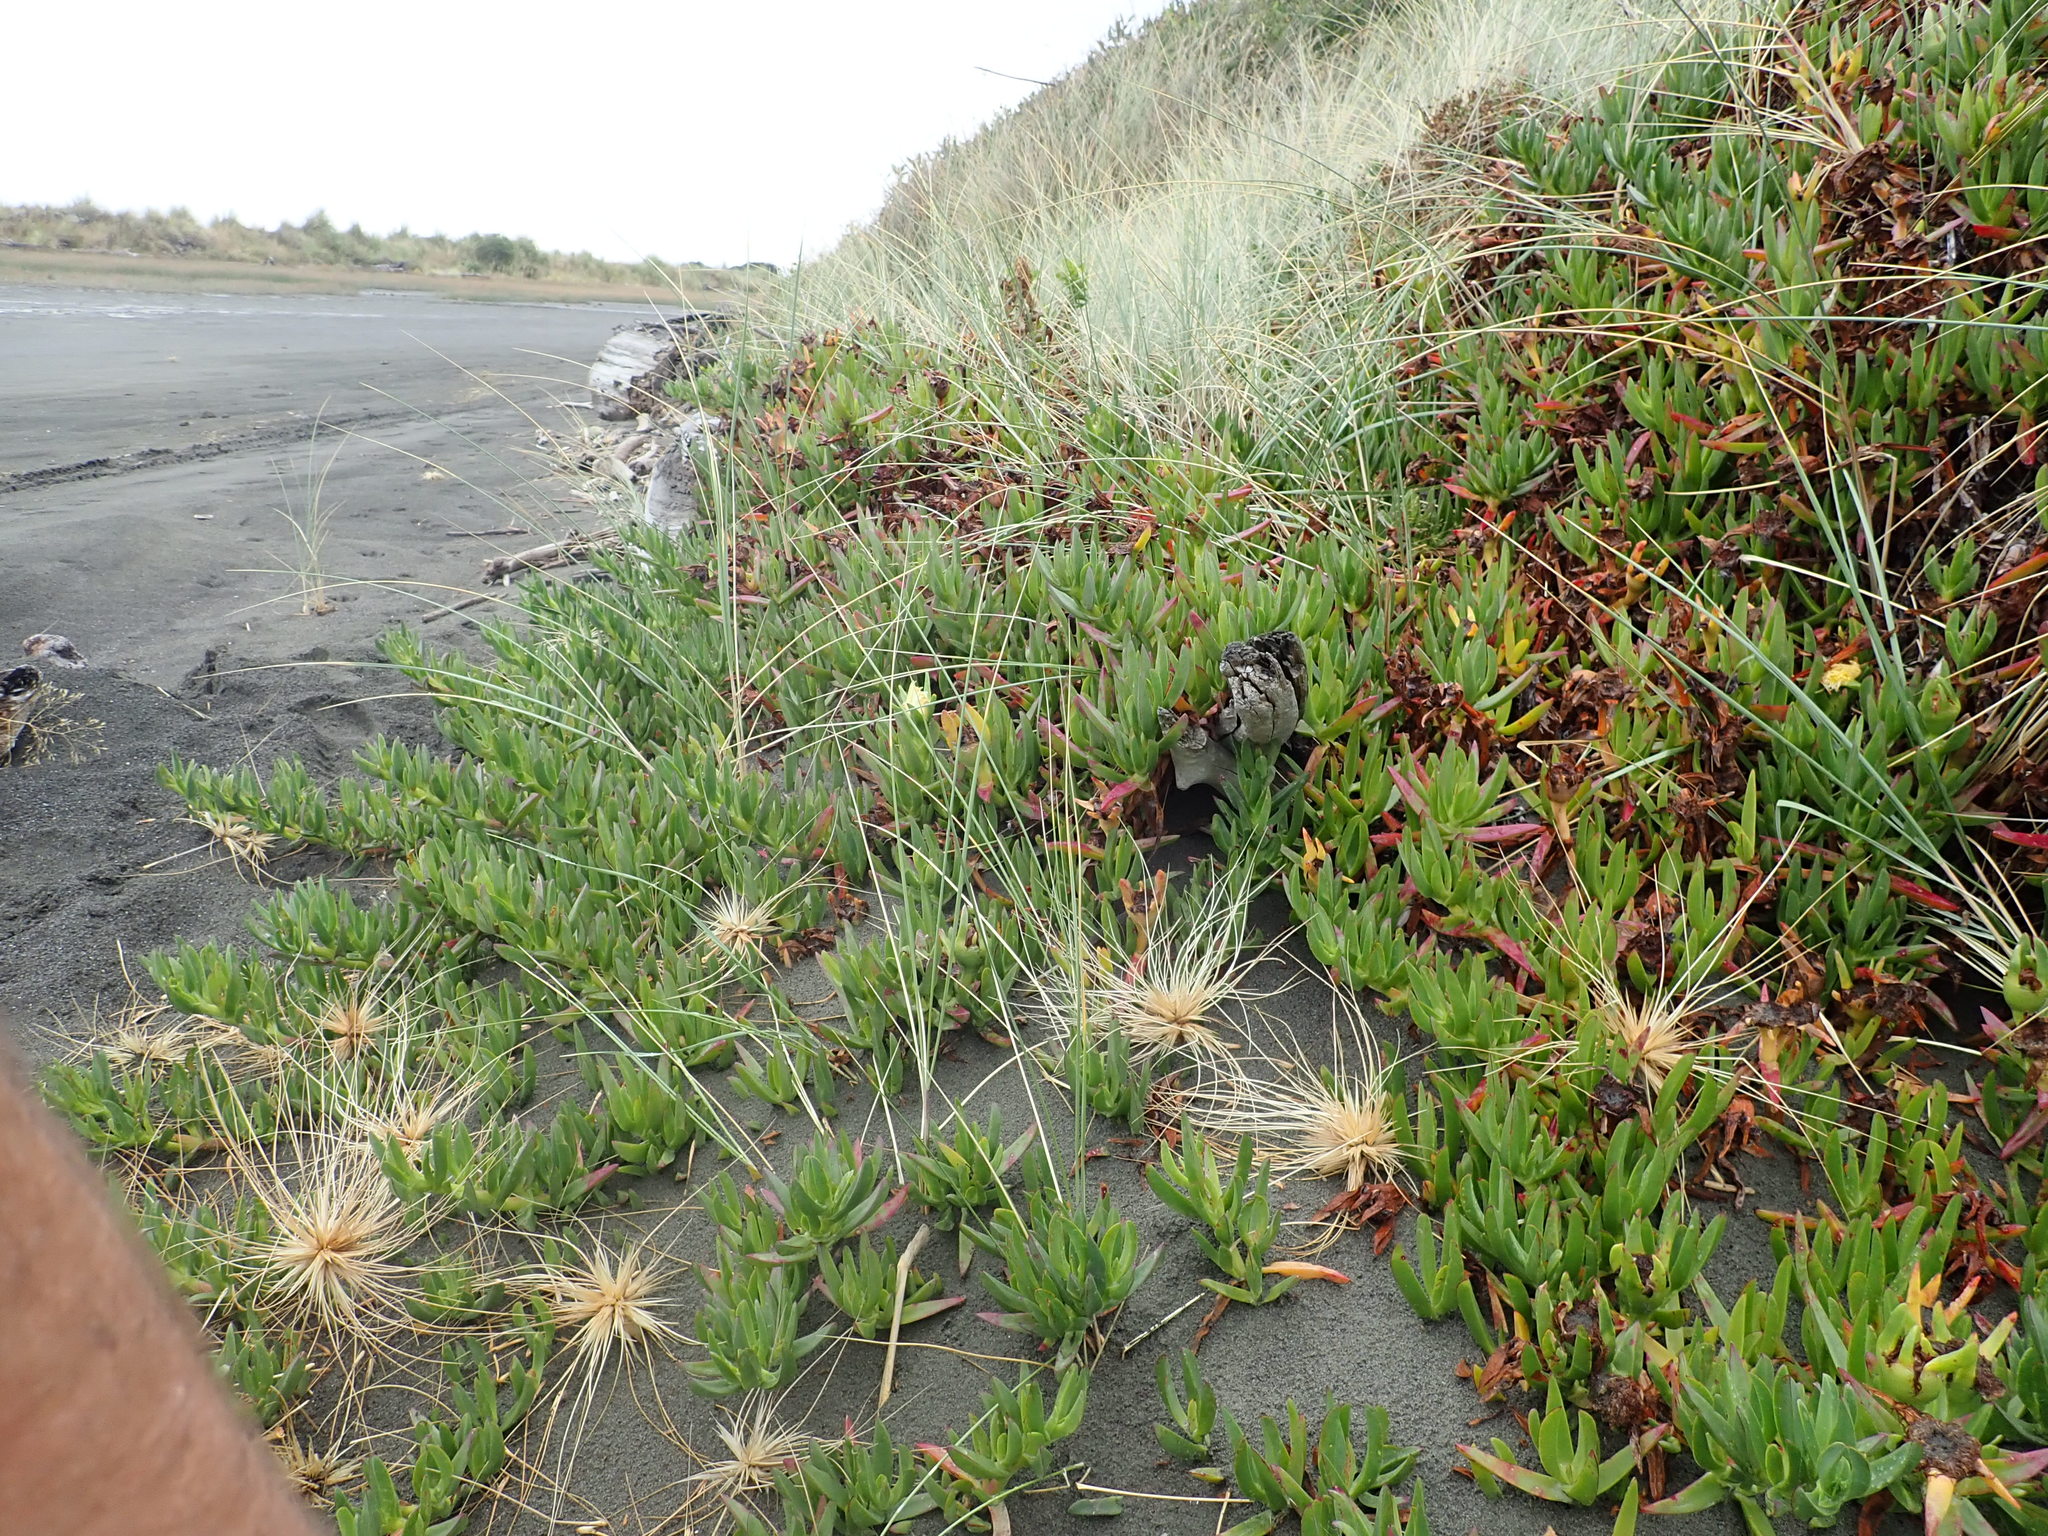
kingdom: Plantae
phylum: Tracheophyta
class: Magnoliopsida
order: Caryophyllales
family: Aizoaceae
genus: Carpobrotus
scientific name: Carpobrotus edulis
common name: Hottentot-fig
